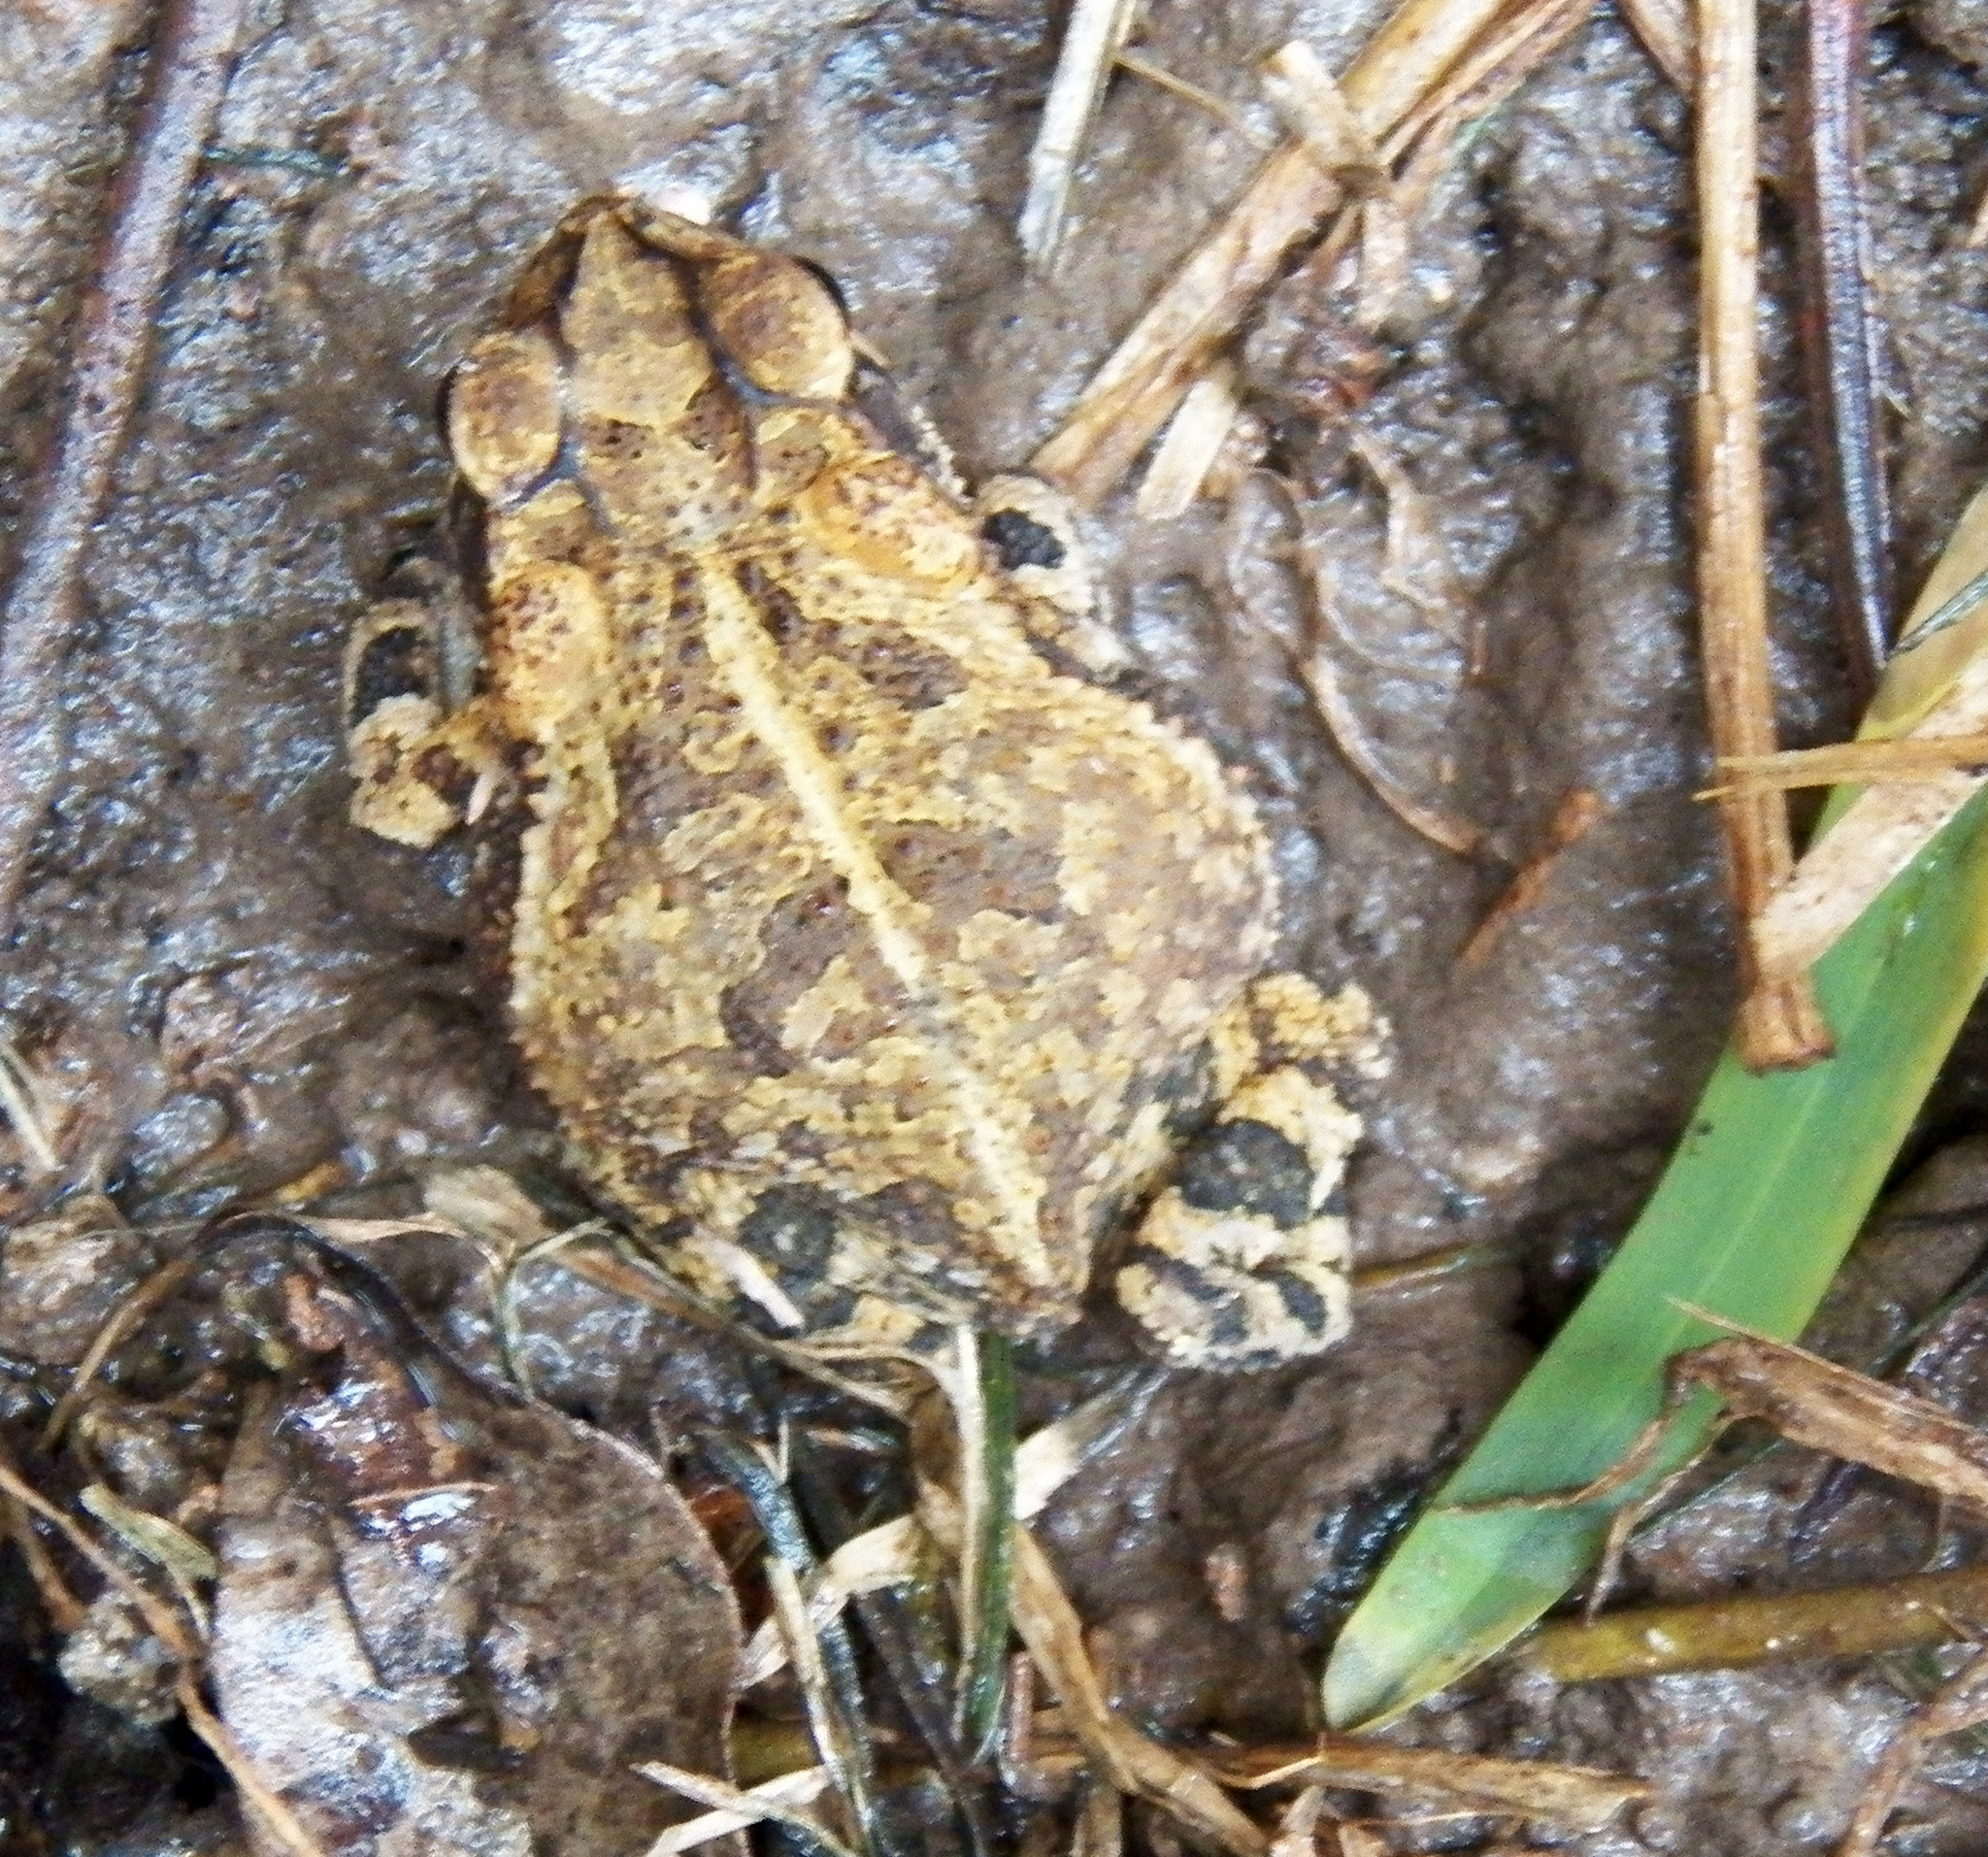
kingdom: Animalia
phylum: Chordata
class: Amphibia
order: Anura
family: Bufonidae
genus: Incilius
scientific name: Incilius nebulifer
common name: Gulf coast toad
